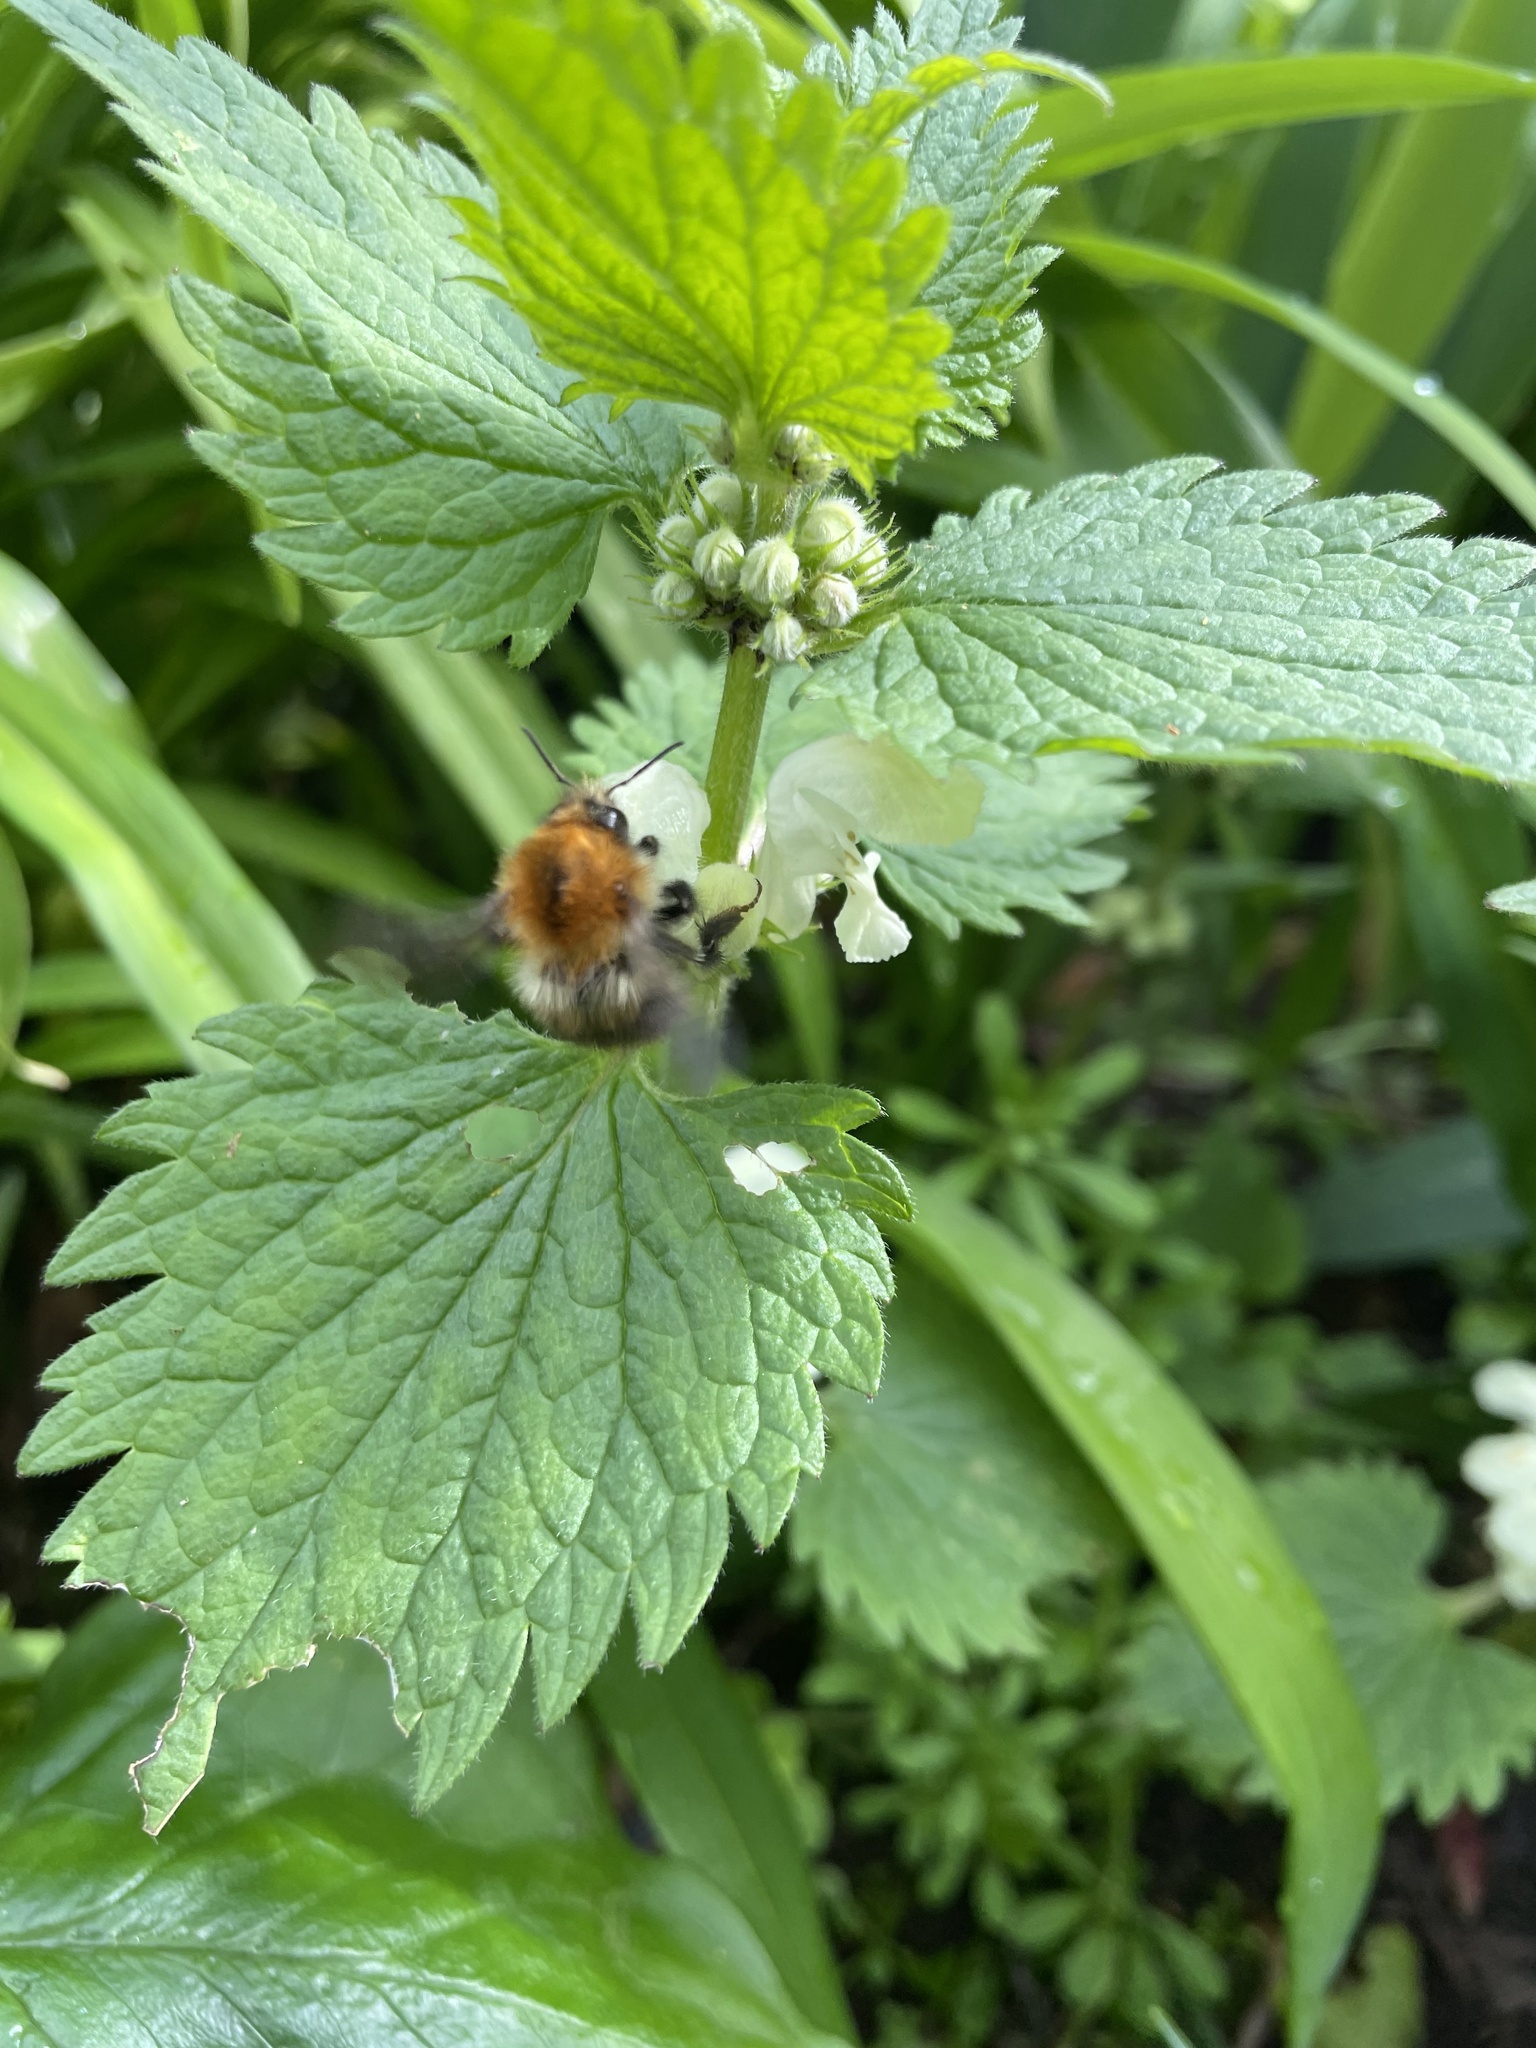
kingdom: Animalia
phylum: Arthropoda
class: Insecta
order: Hymenoptera
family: Apidae
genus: Bombus
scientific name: Bombus pascuorum
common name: Common carder bee
